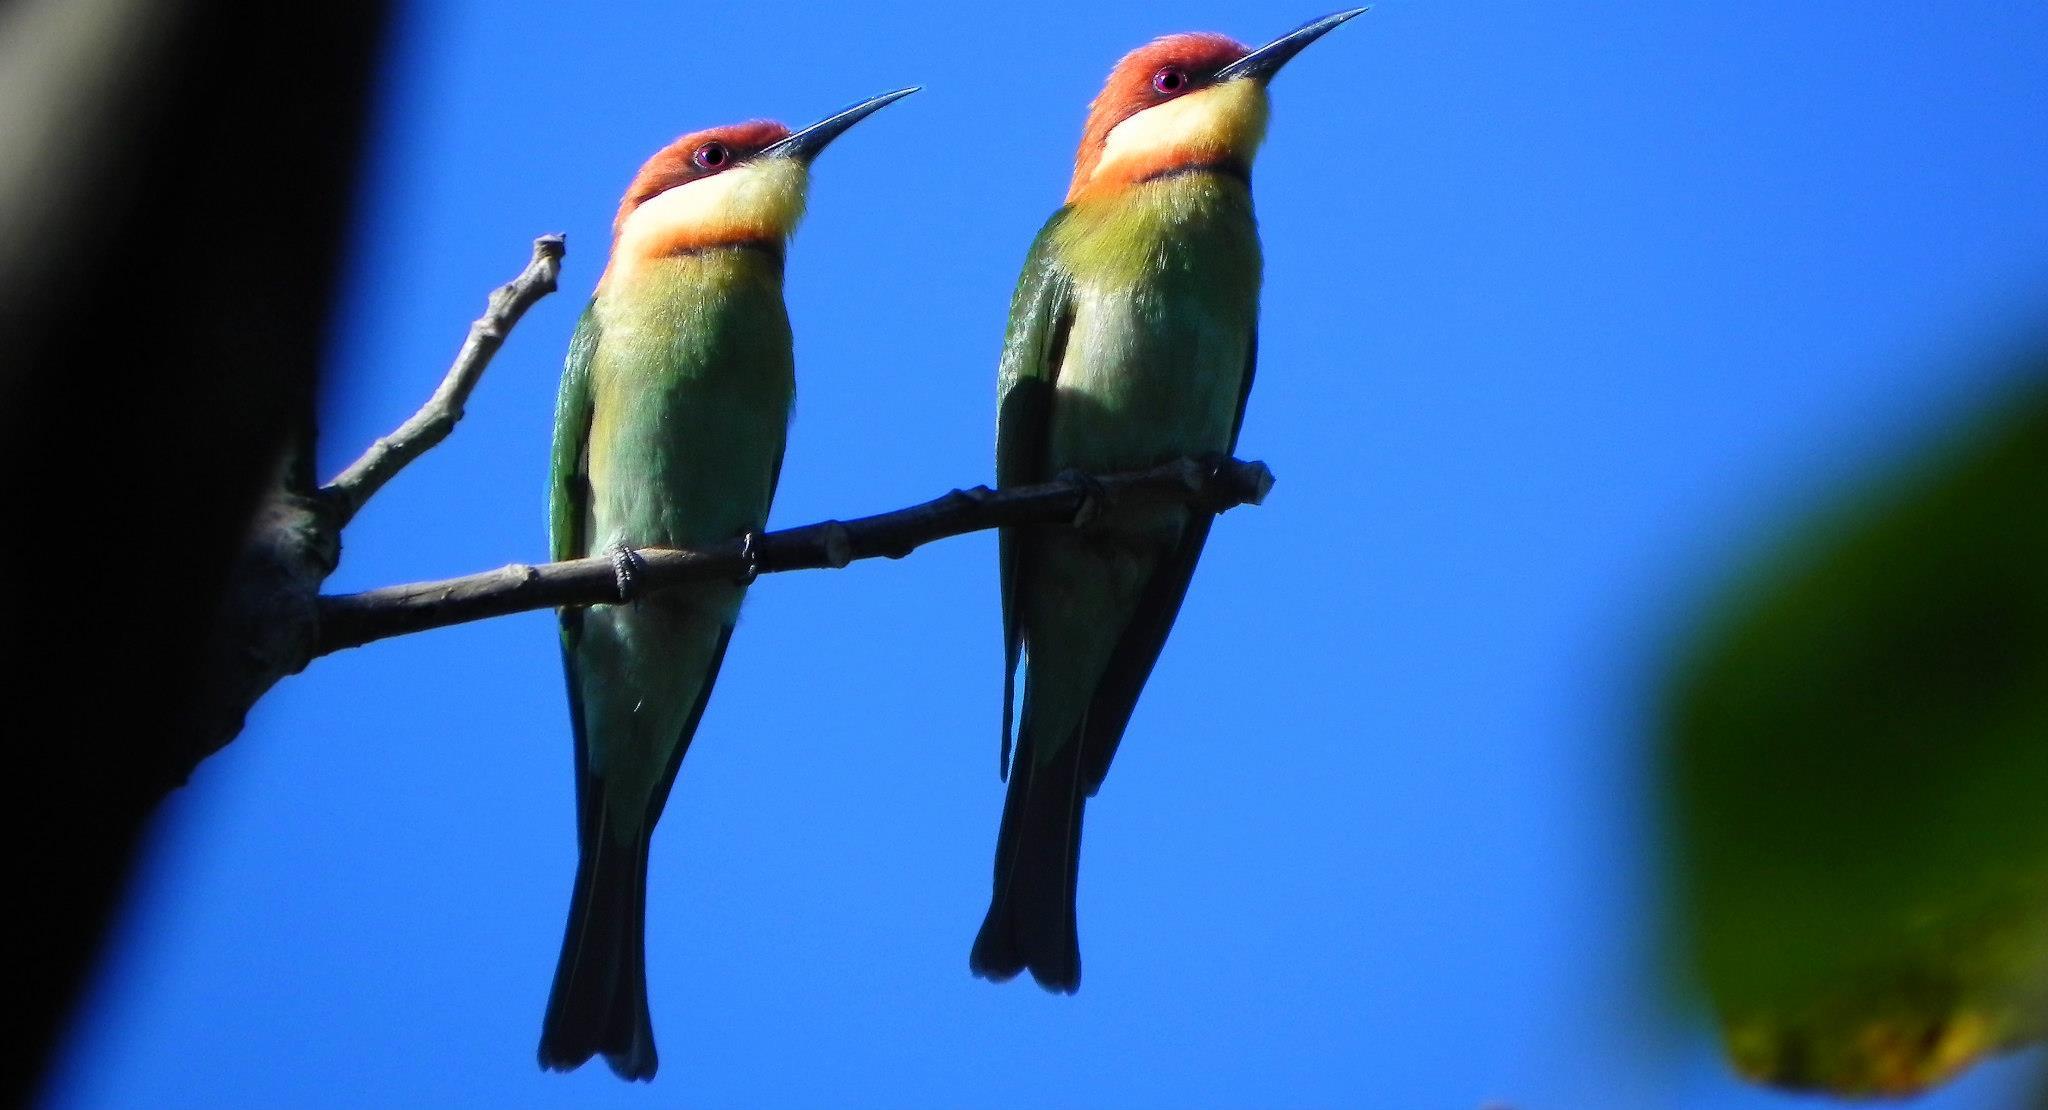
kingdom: Animalia
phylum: Chordata
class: Aves
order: Coraciiformes
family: Meropidae
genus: Merops
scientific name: Merops leschenaulti
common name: Chestnut-headed bee-eater
